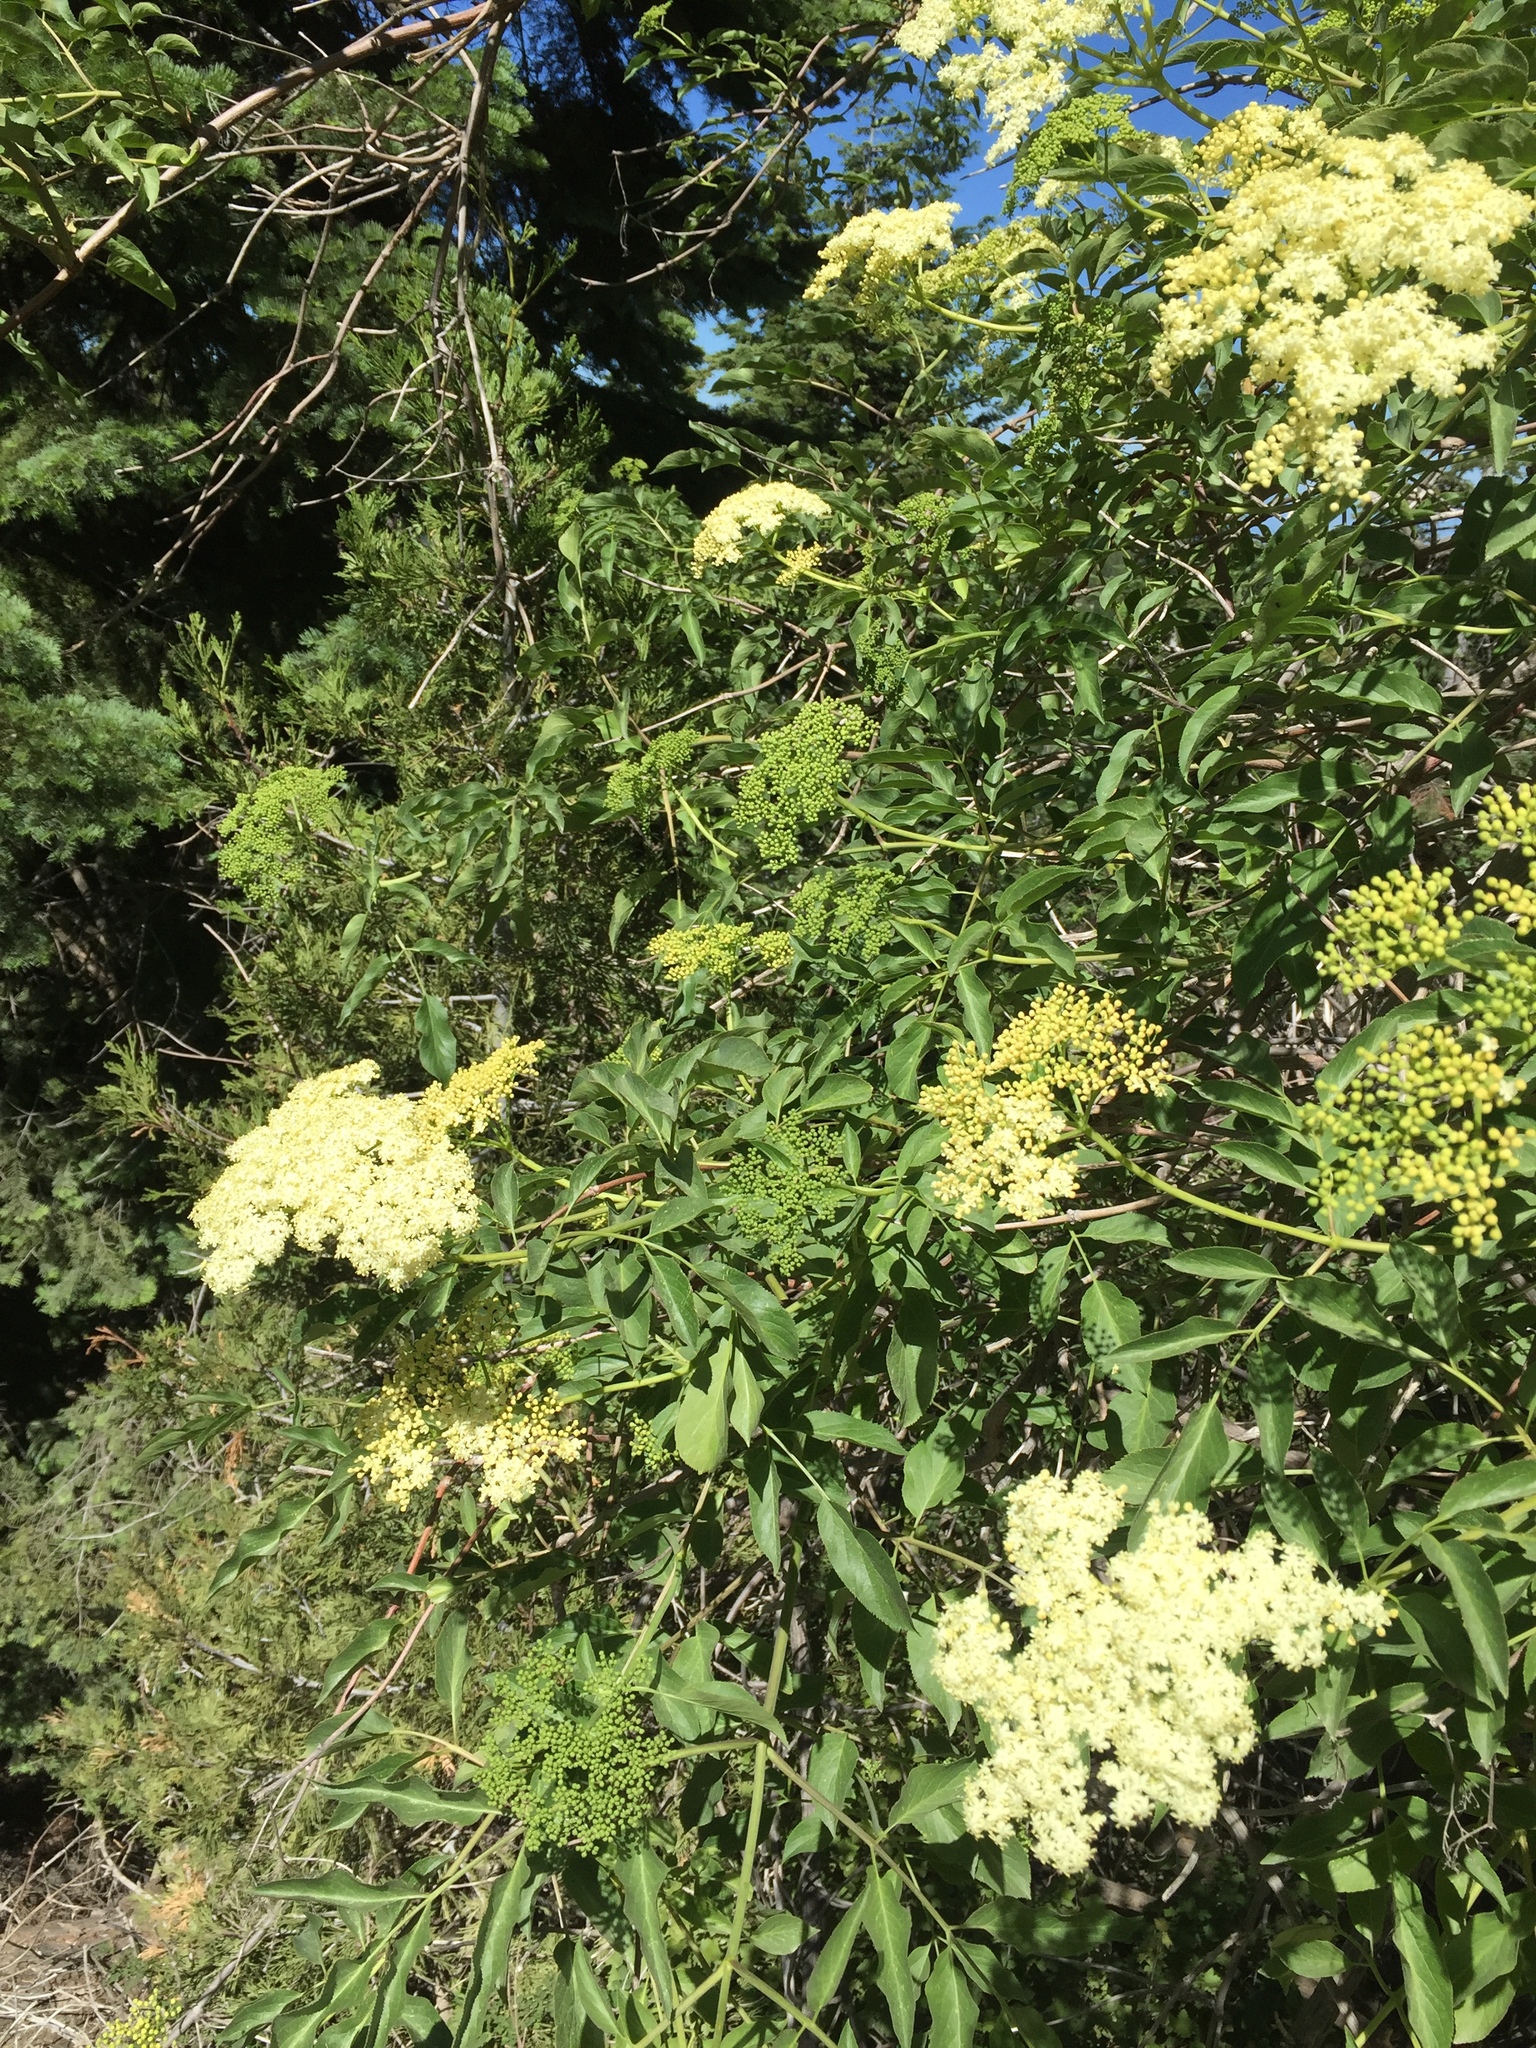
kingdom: Plantae
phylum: Tracheophyta
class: Magnoliopsida
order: Dipsacales
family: Viburnaceae
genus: Sambucus
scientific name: Sambucus cerulea
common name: Blue elder
